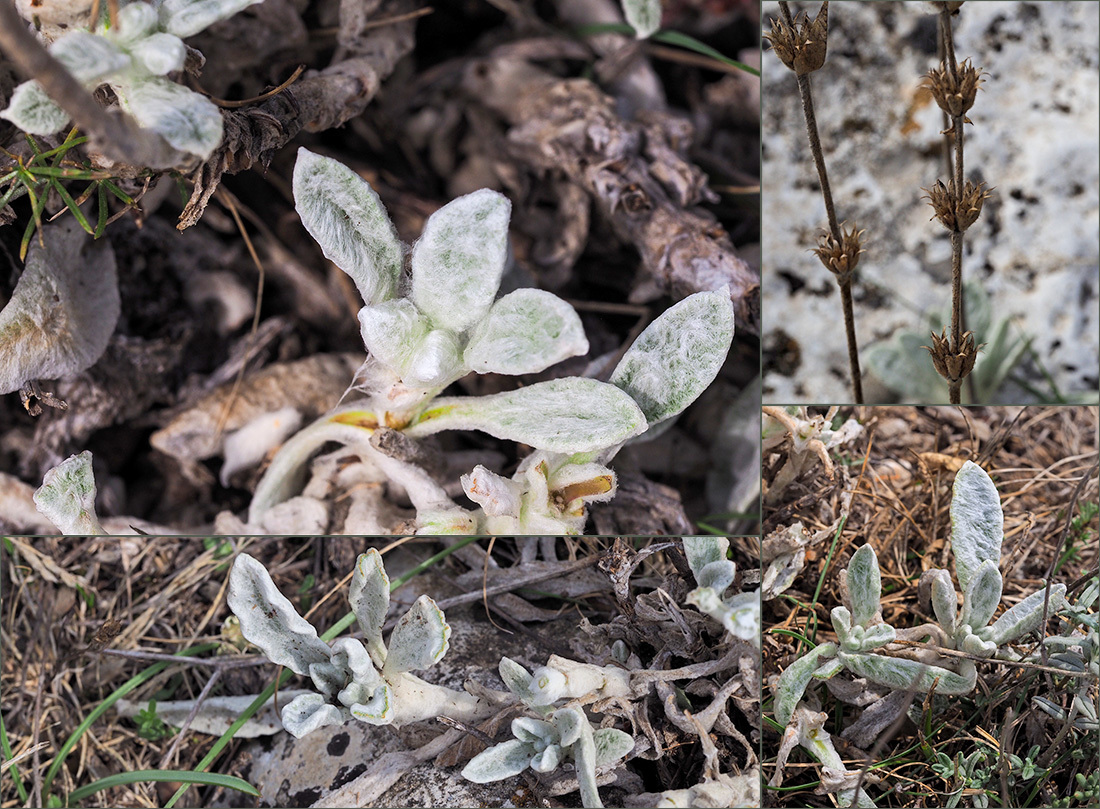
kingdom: Plantae
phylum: Tracheophyta
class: Magnoliopsida
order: Lamiales
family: Lamiaceae
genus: Sideritis
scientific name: Sideritis italica
